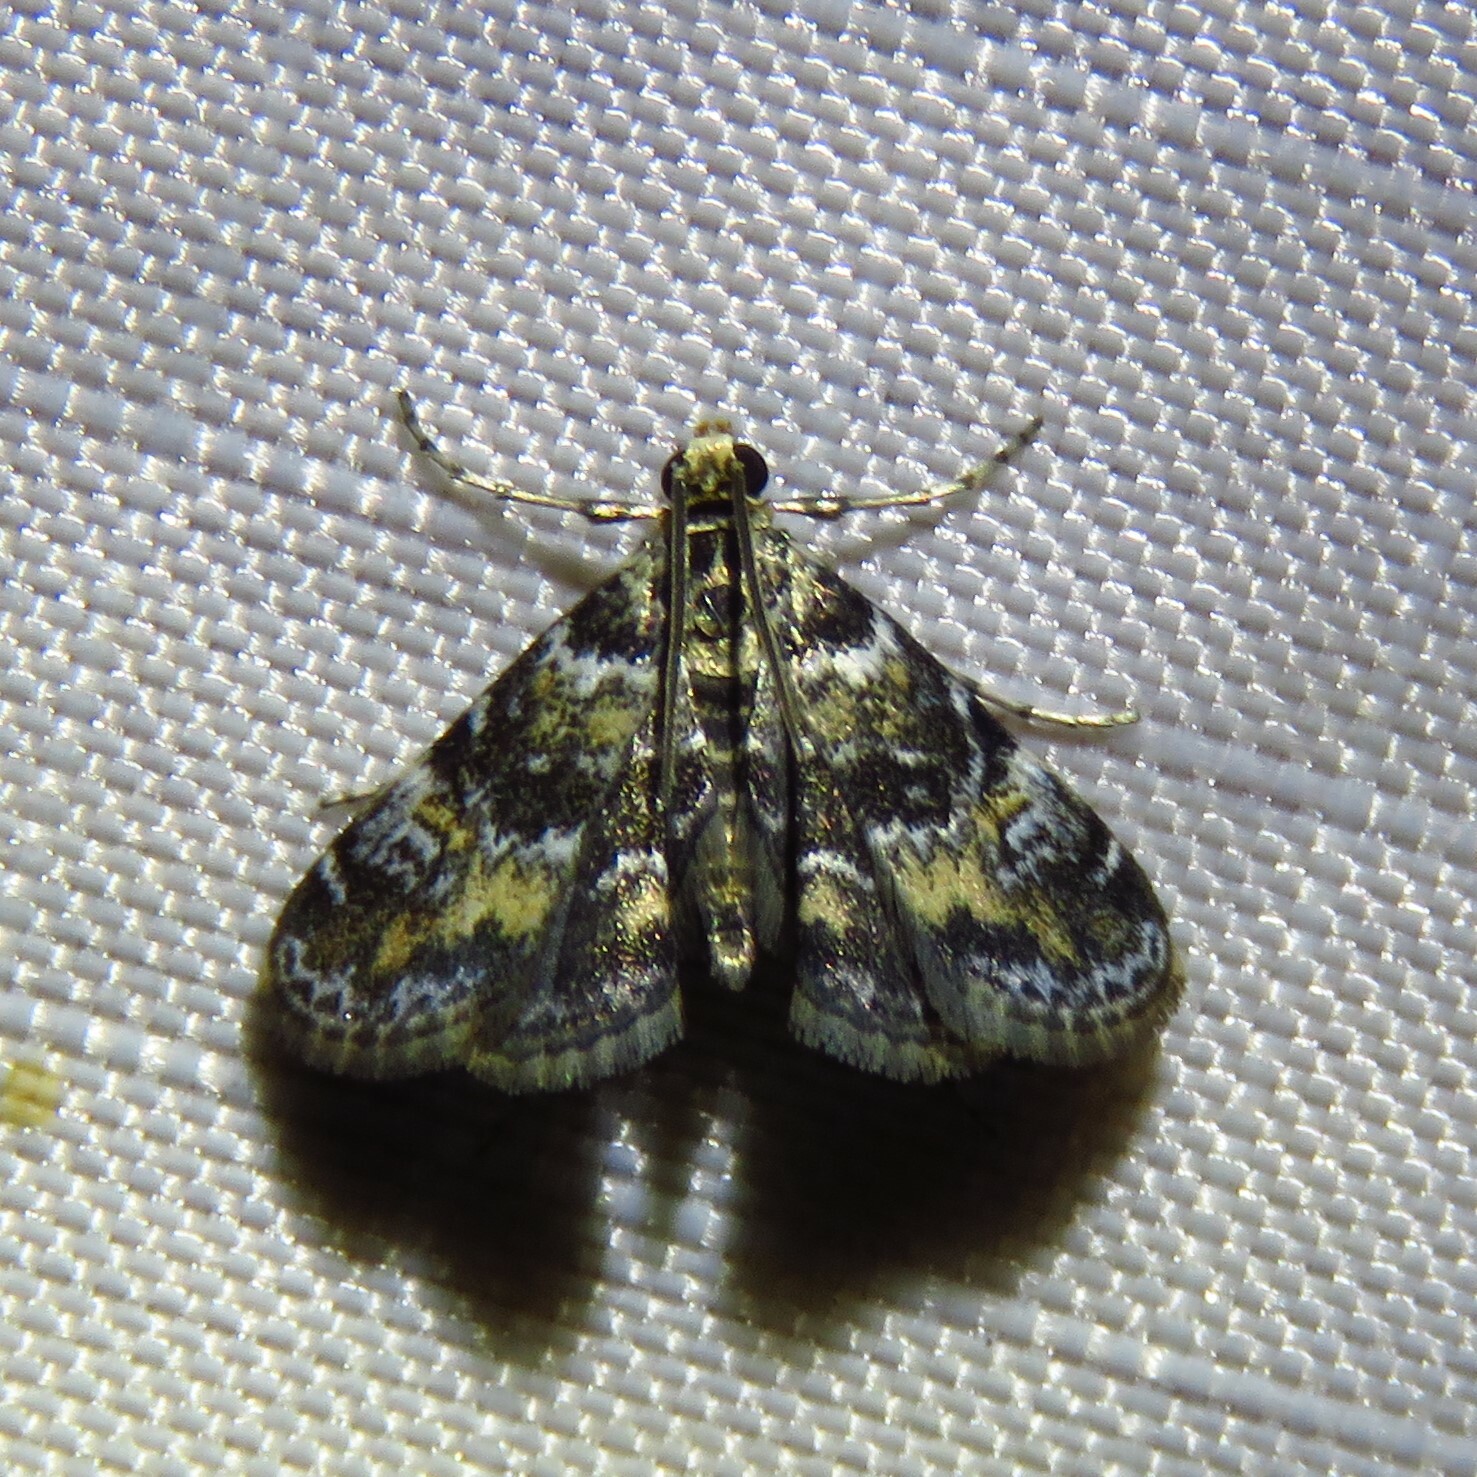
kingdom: Animalia
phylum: Arthropoda
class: Insecta
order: Lepidoptera
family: Crambidae
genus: Elophila
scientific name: Elophila obliteralis
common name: Waterlily leafcutter moth
